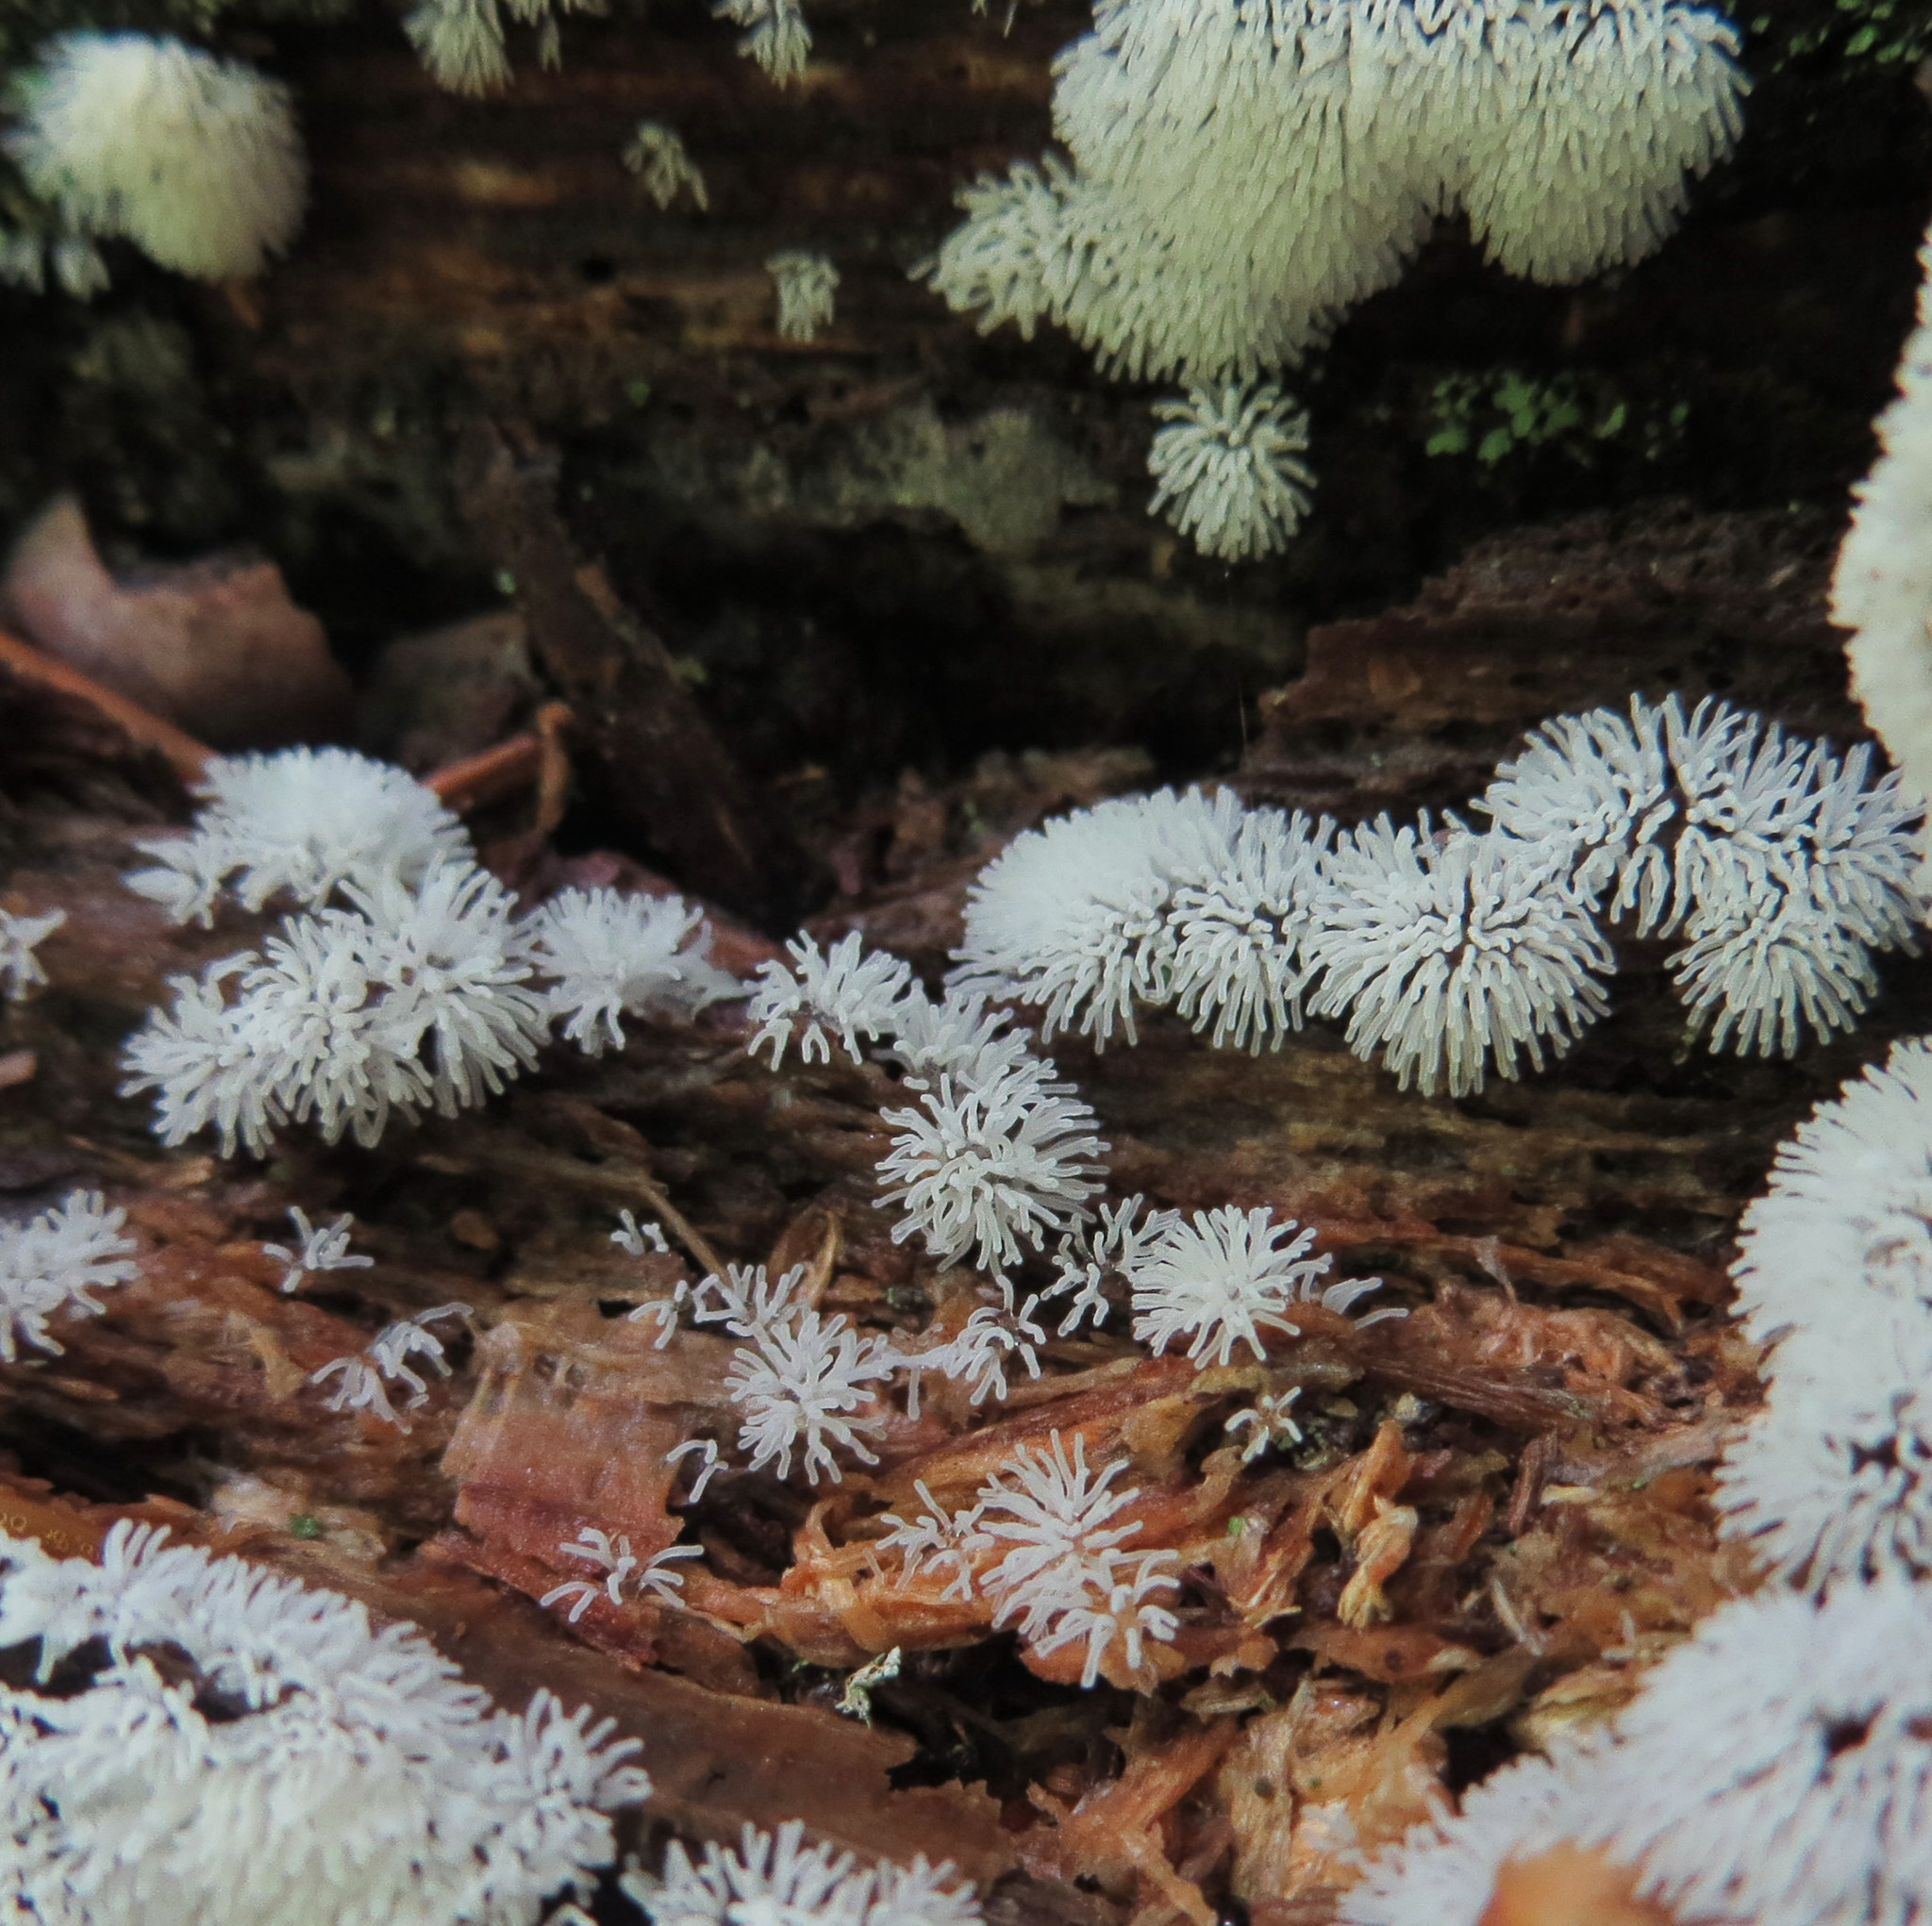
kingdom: Protozoa
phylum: Mycetozoa
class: Protosteliomycetes
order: Ceratiomyxales
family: Ceratiomyxaceae
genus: Ceratiomyxa
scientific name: Ceratiomyxa fruticulosa
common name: Honeycomb coral slime mold
